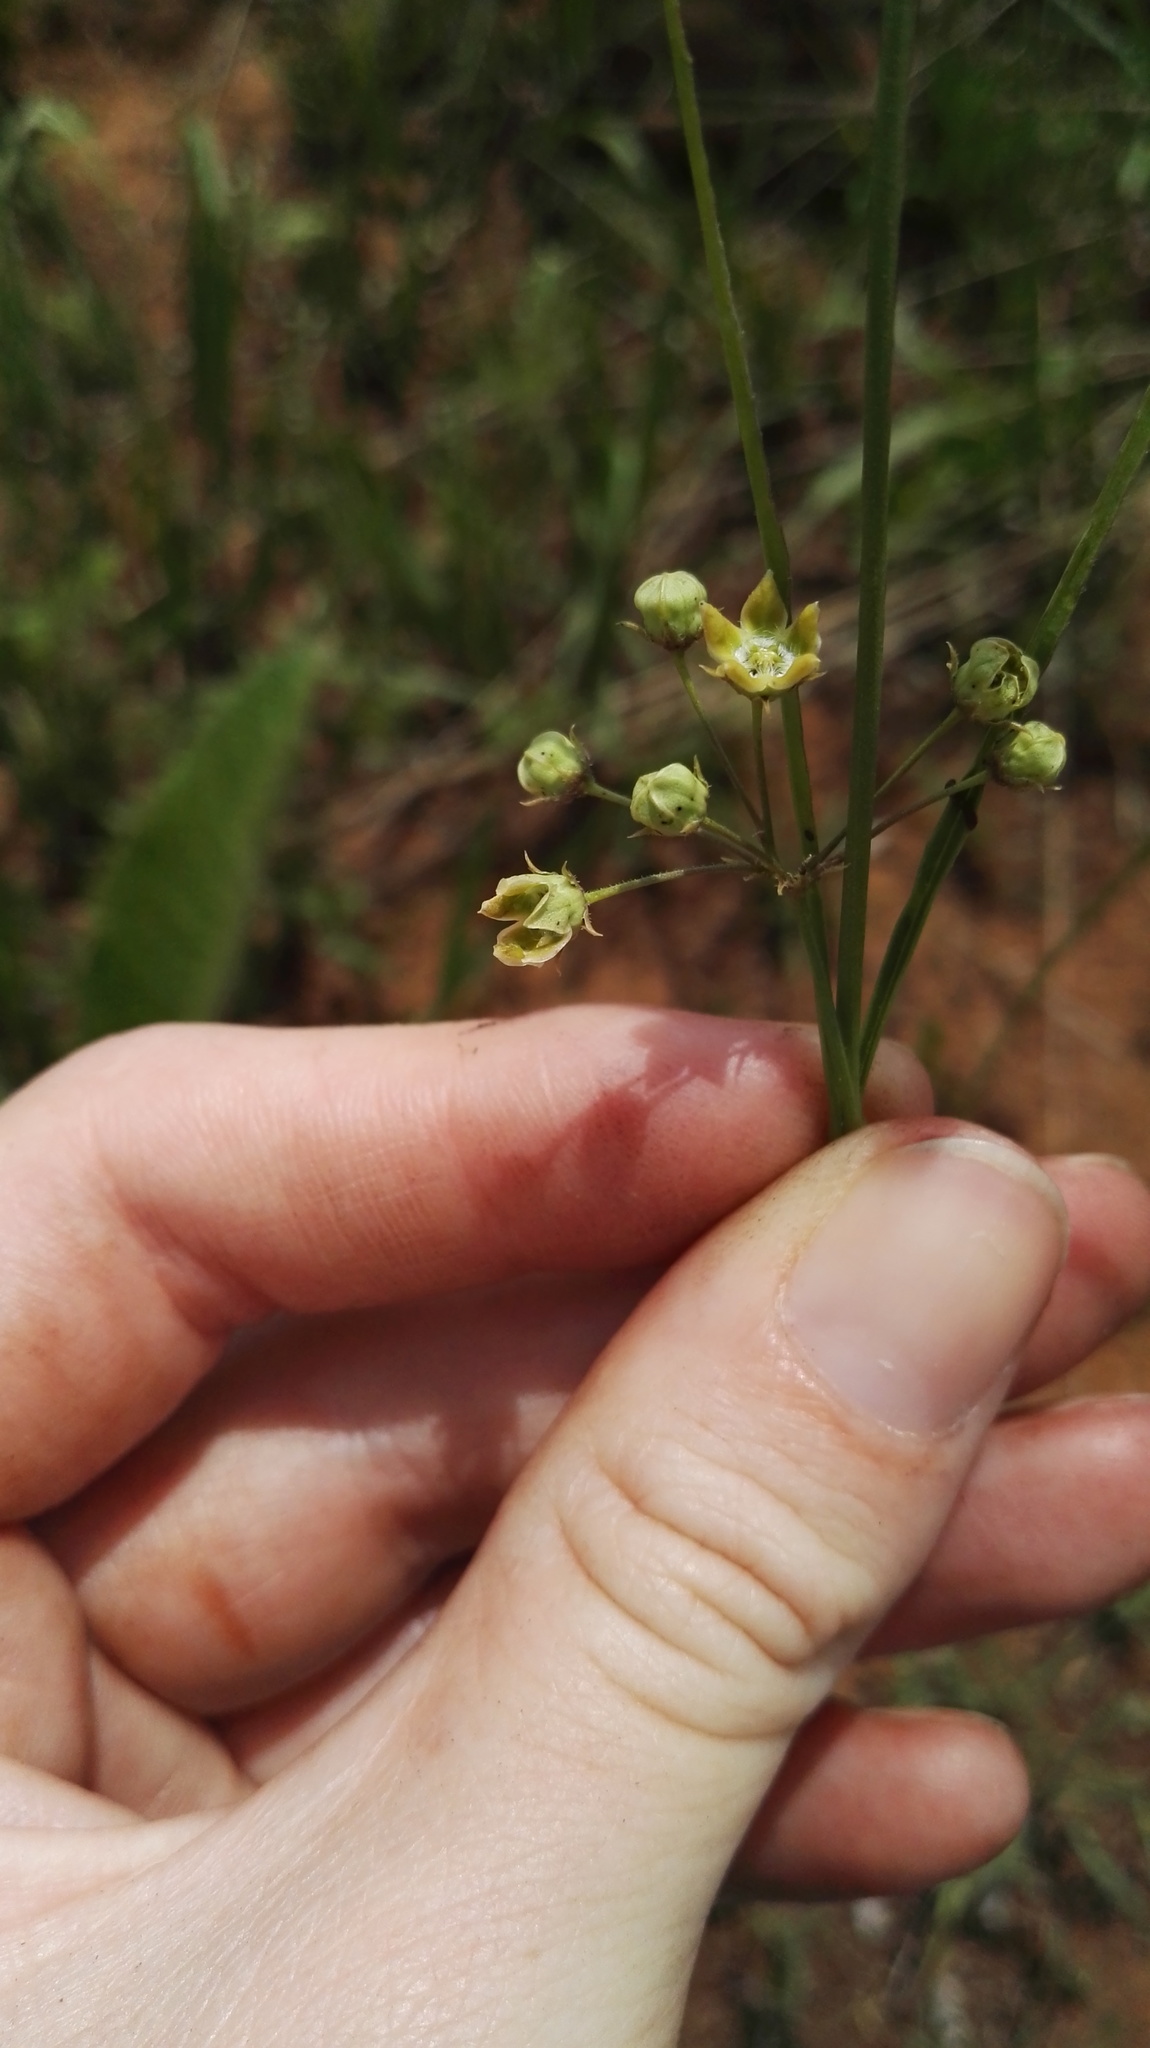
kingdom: Plantae
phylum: Tracheophyta
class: Magnoliopsida
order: Gentianales
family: Apocynaceae
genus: Sisyranthus
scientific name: Sisyranthus huttoniae
